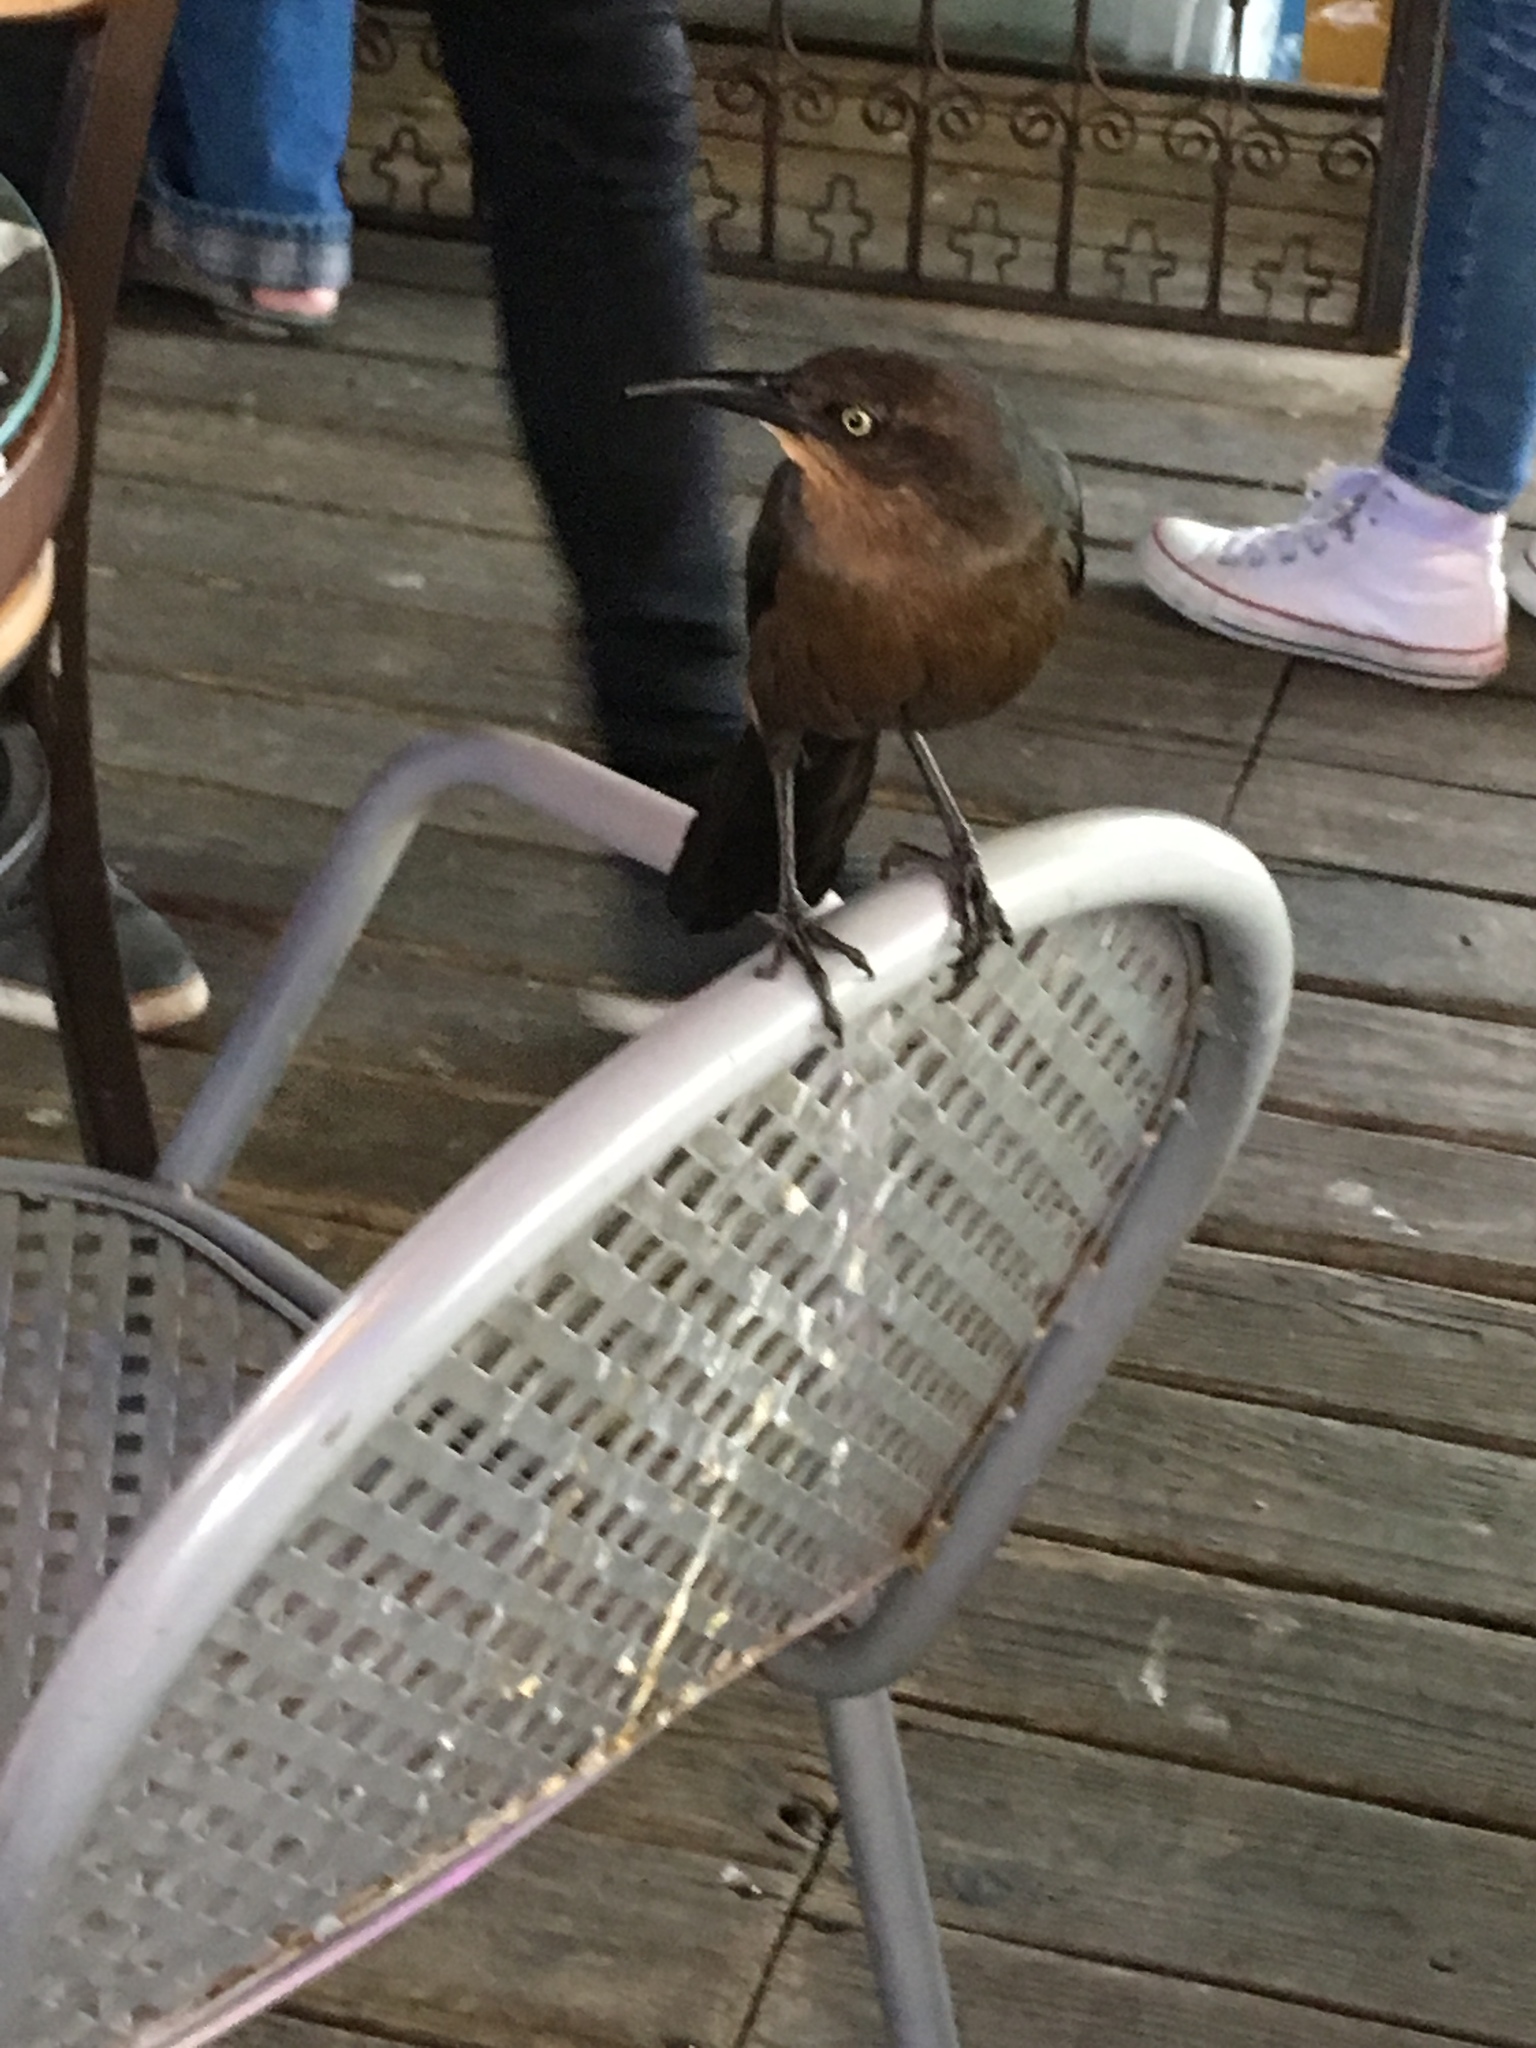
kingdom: Animalia
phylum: Chordata
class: Aves
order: Passeriformes
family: Icteridae
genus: Quiscalus
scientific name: Quiscalus mexicanus
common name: Great-tailed grackle
